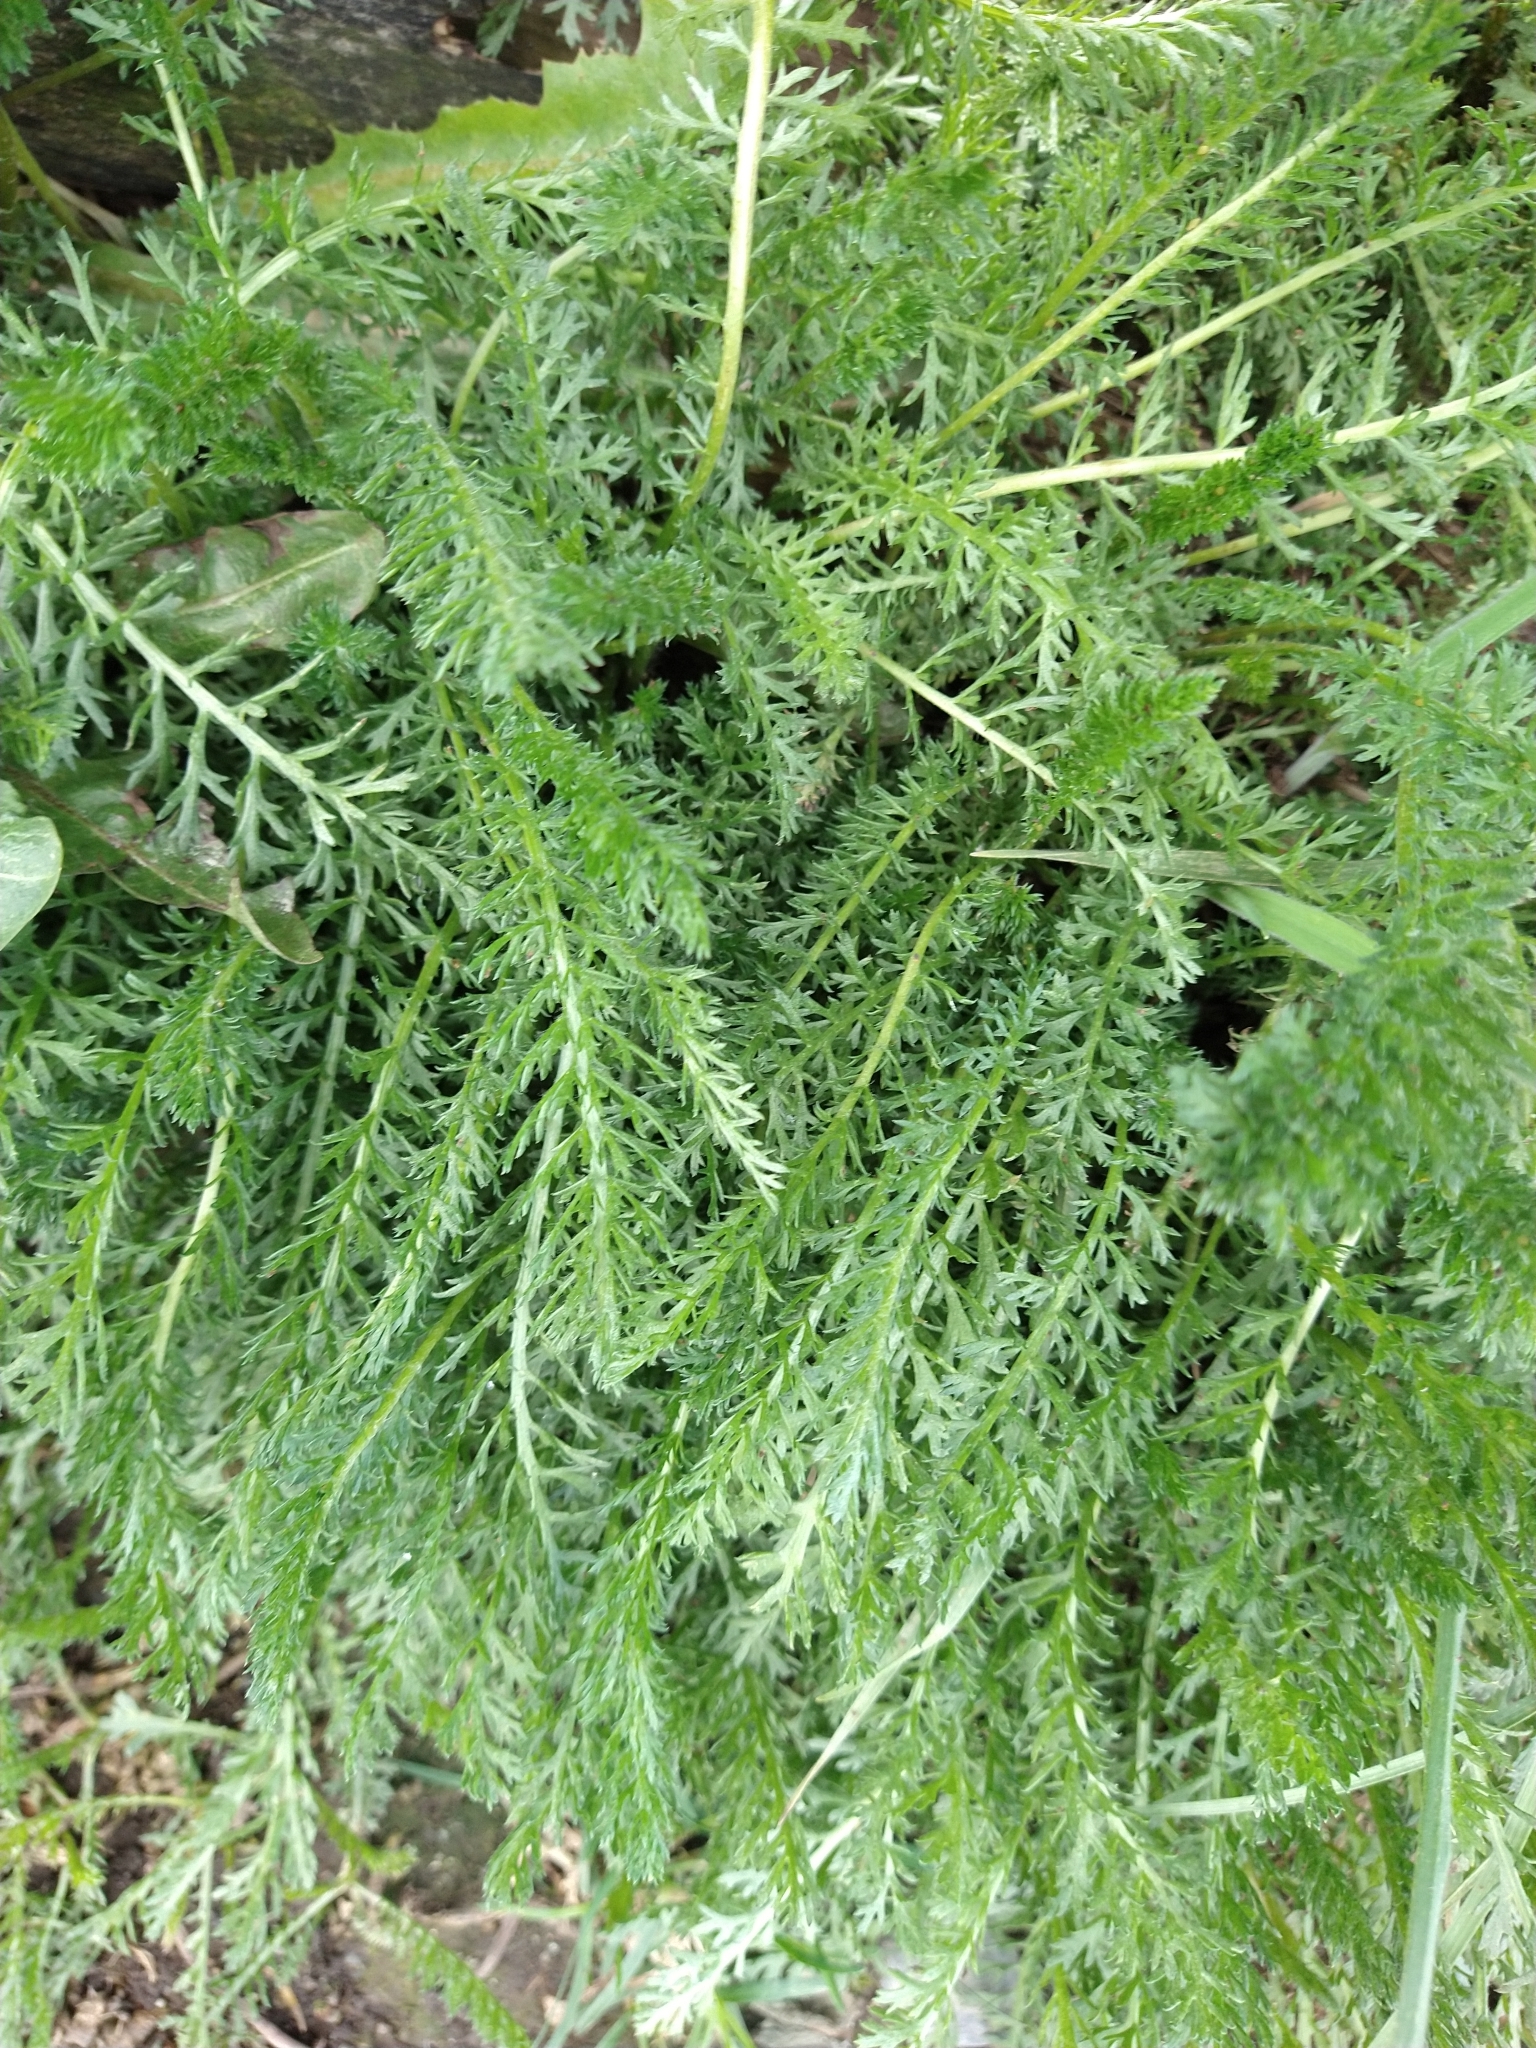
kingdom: Plantae
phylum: Tracheophyta
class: Magnoliopsida
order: Asterales
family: Asteraceae
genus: Achillea
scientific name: Achillea millefolium
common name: Yarrow
